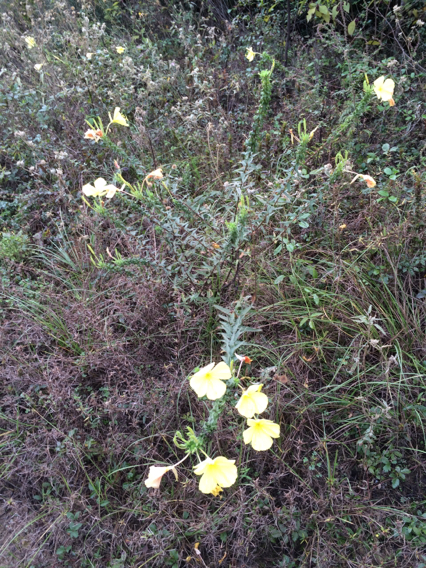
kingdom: Plantae
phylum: Tracheophyta
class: Magnoliopsida
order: Myrtales
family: Onagraceae
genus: Oenothera
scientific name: Oenothera heterophylla
